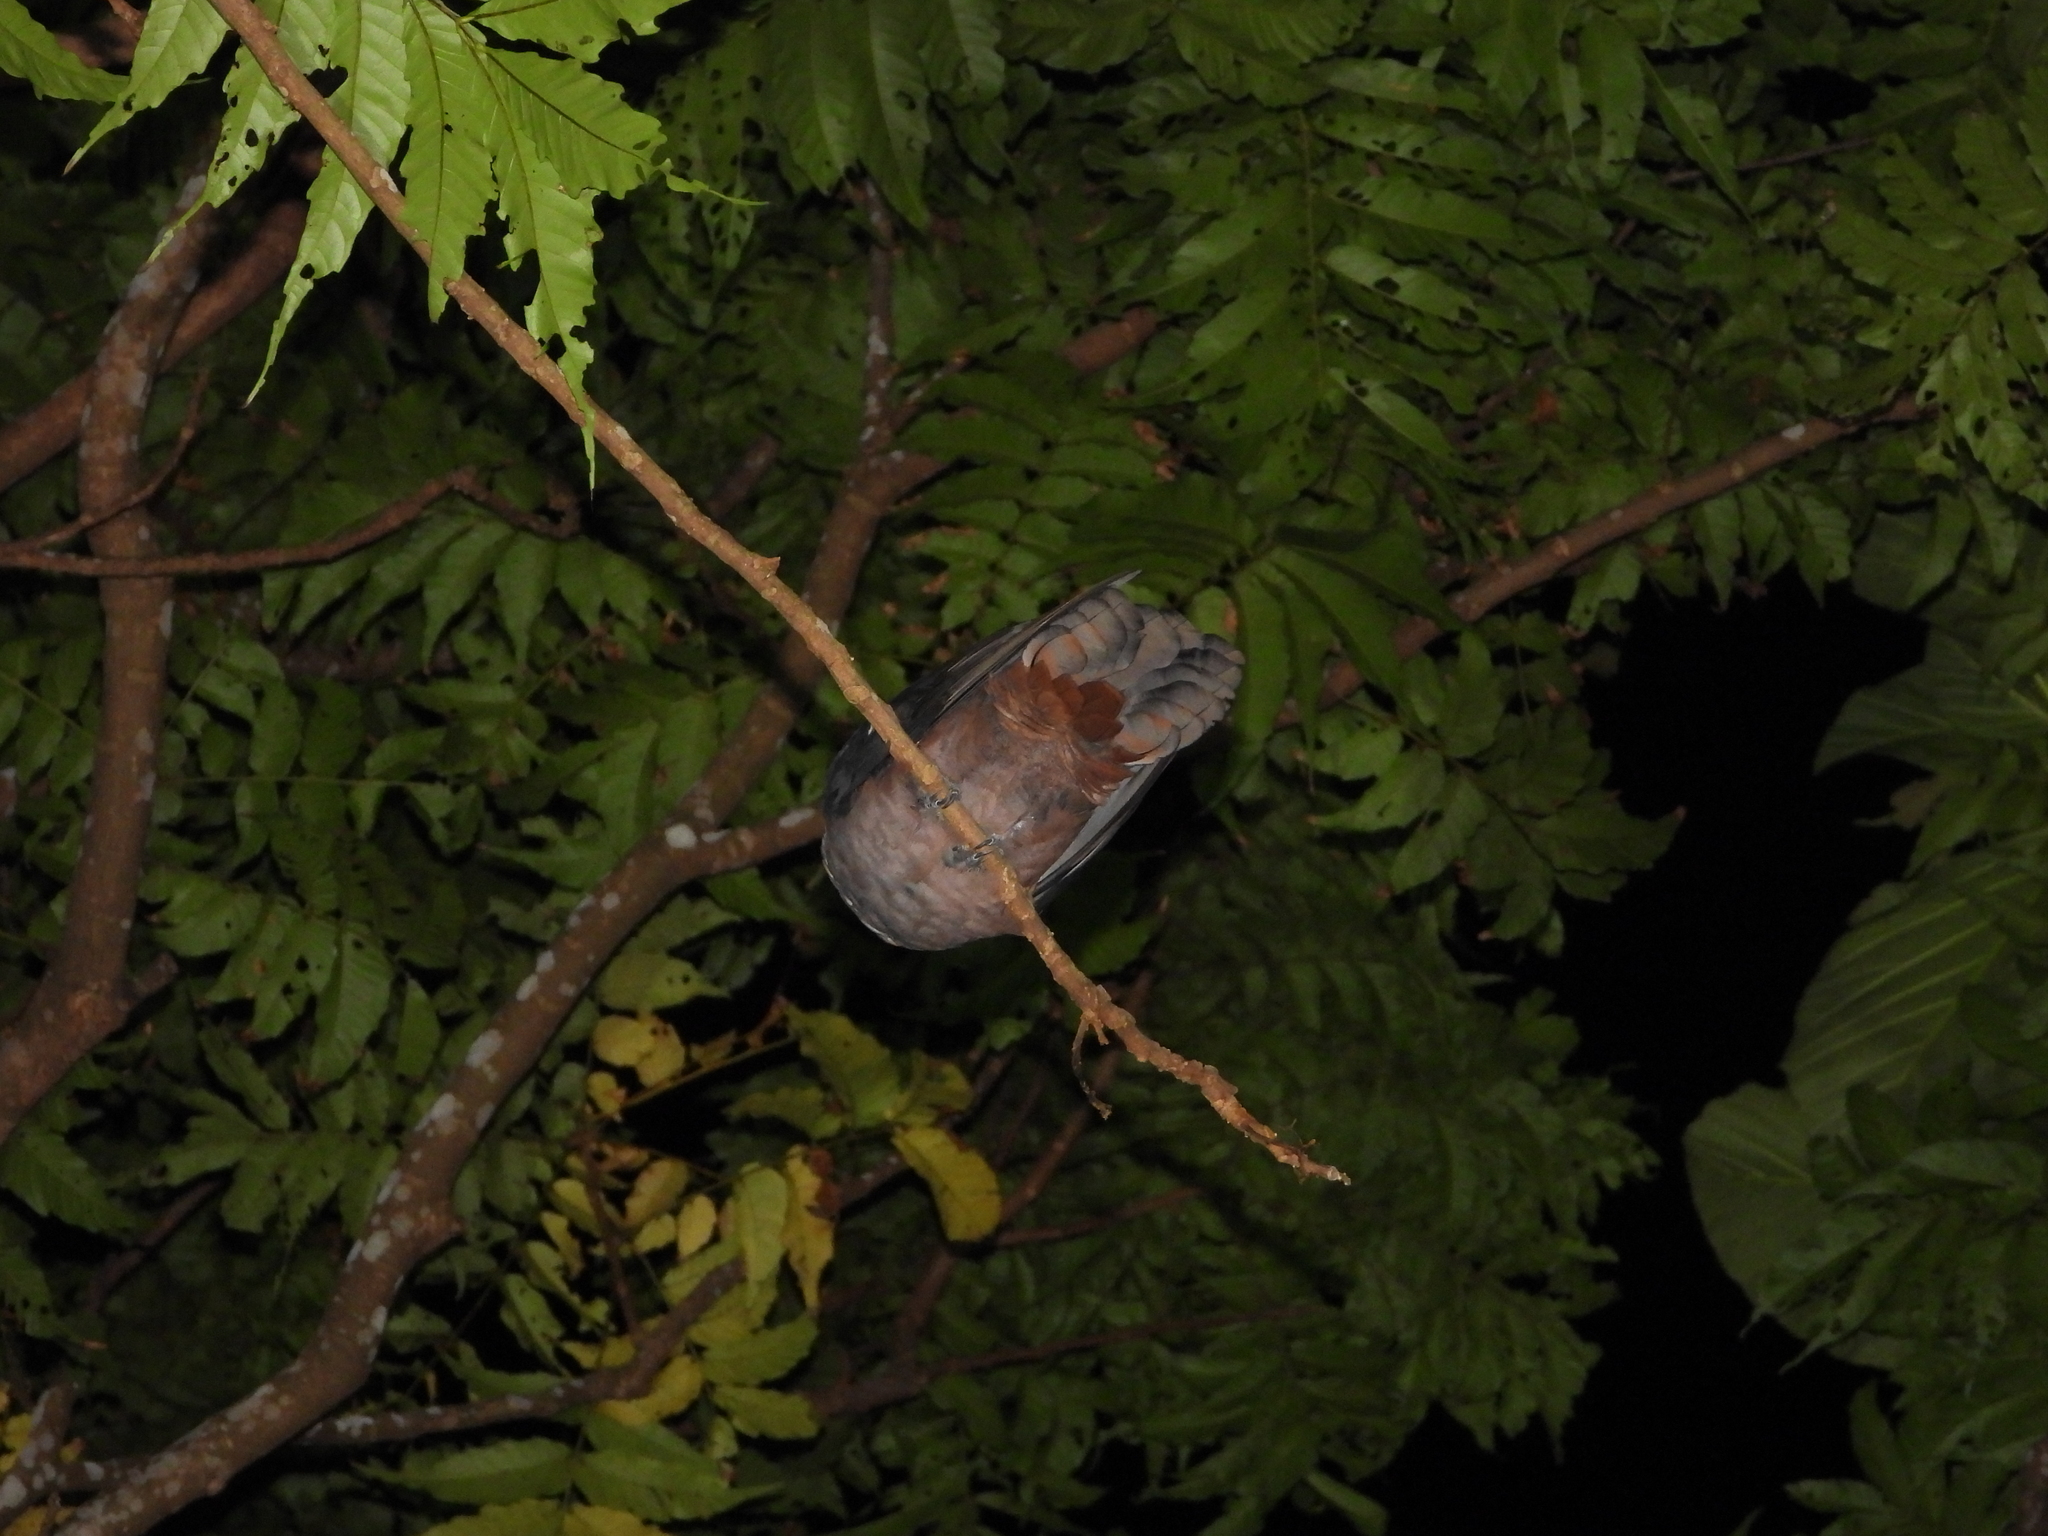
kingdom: Animalia
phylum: Chordata
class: Aves
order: Passeriformes
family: Pycnonotidae
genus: Hypsipetes
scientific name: Hypsipetes amaurotis
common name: Brown-eared bulbul
